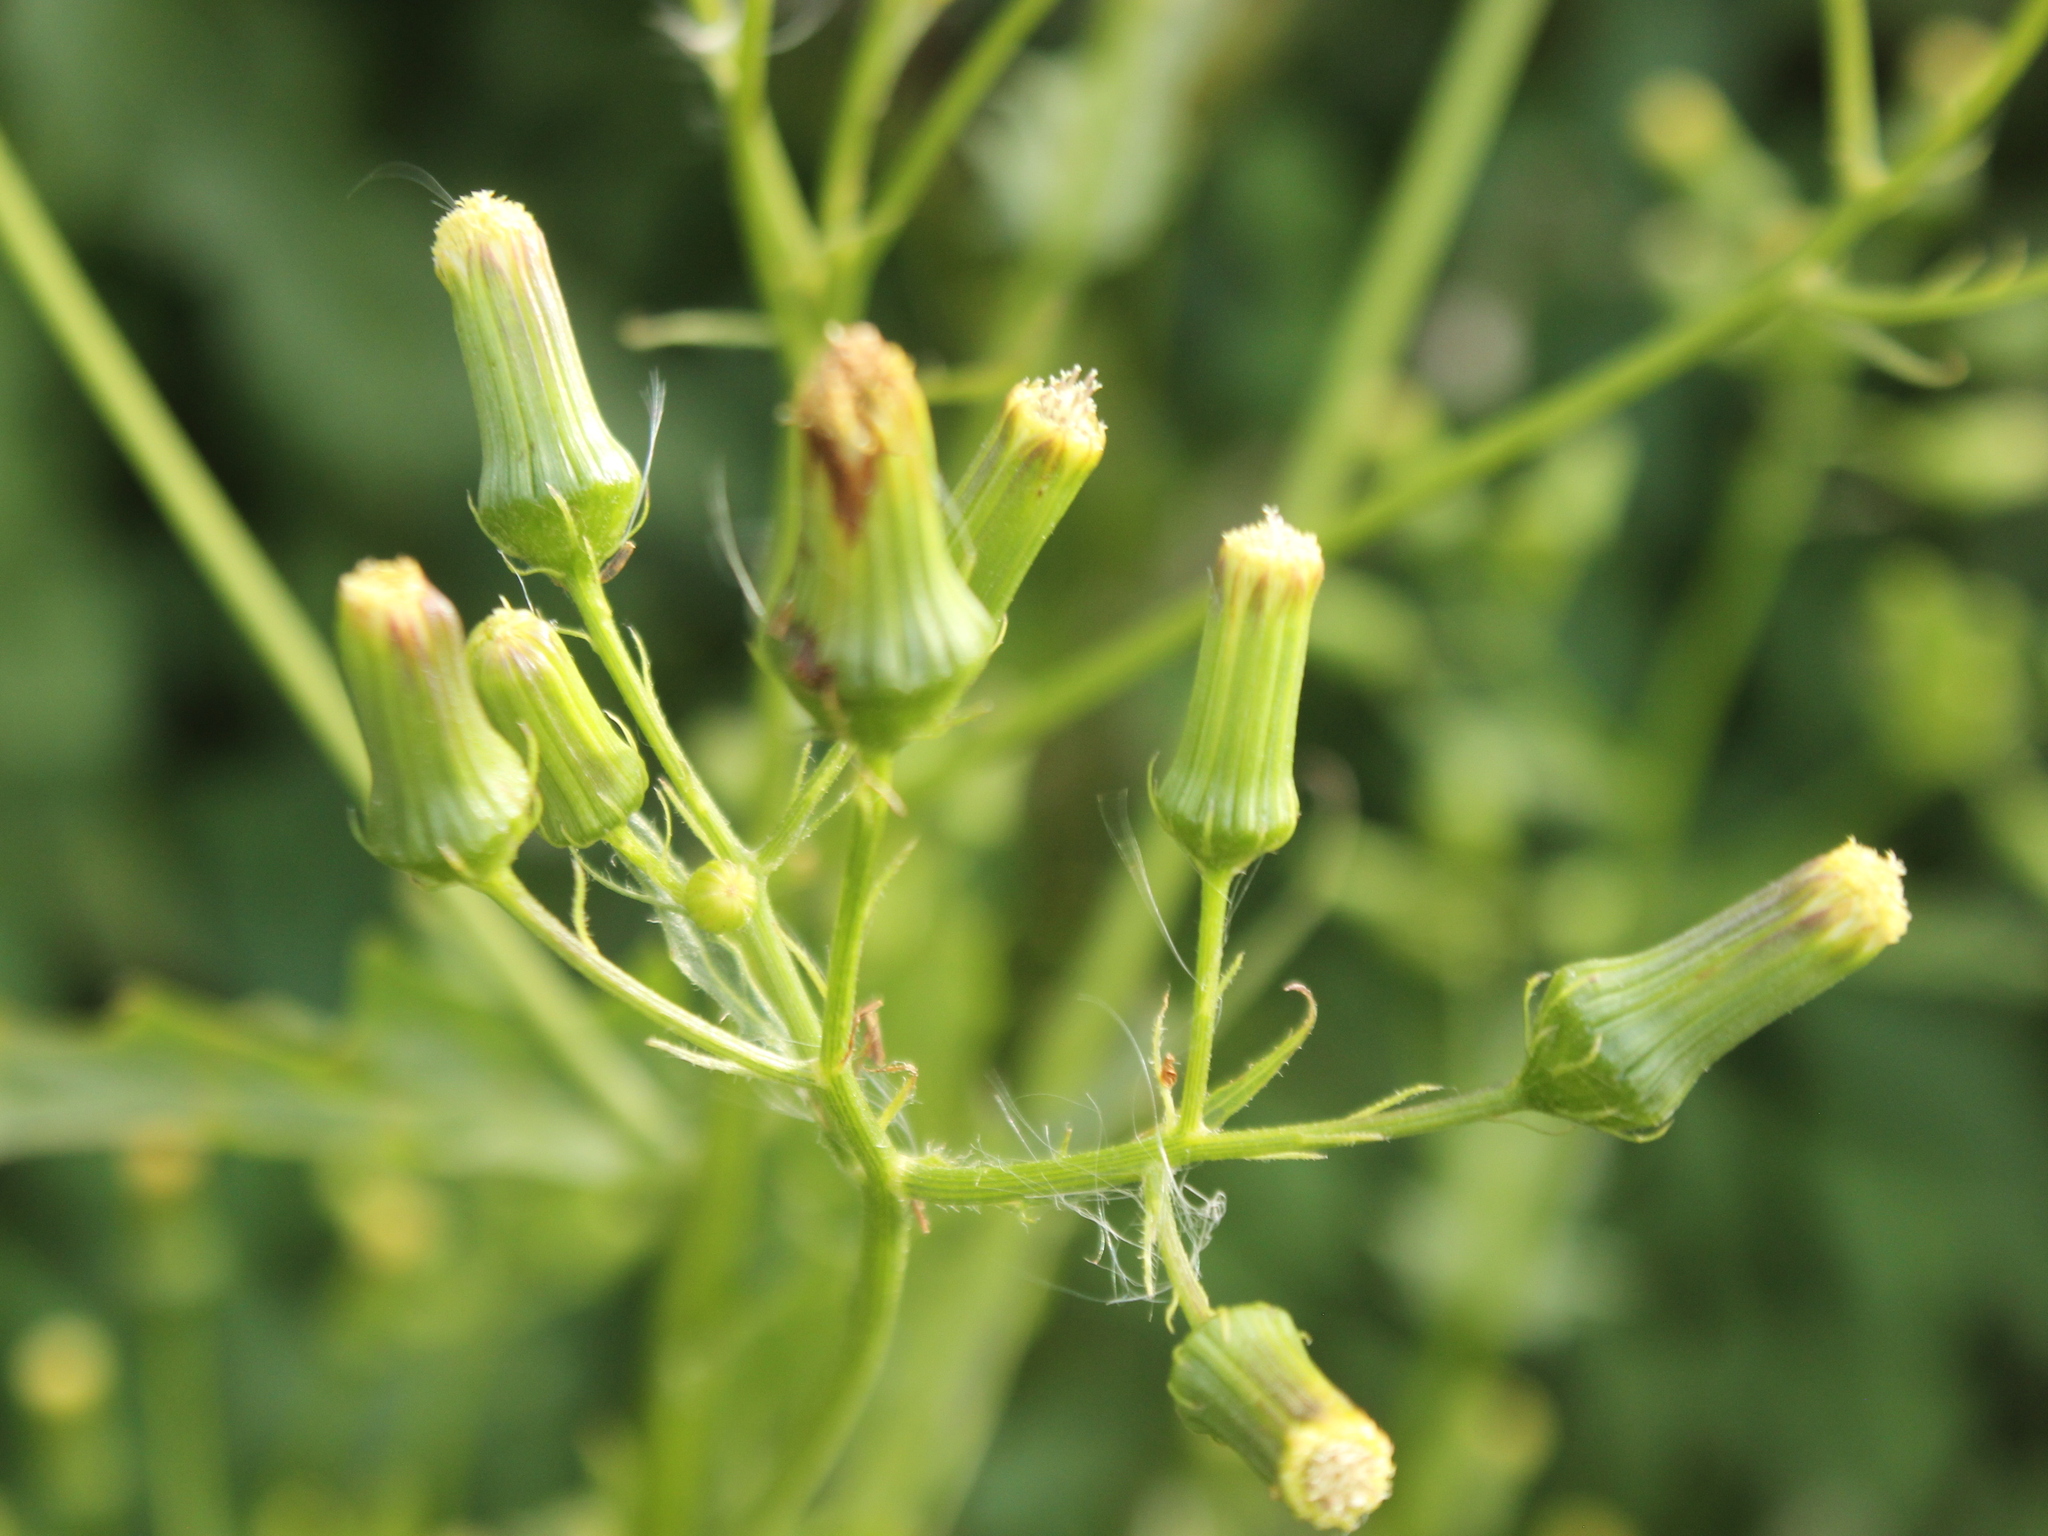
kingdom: Plantae
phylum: Tracheophyta
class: Magnoliopsida
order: Asterales
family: Asteraceae
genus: Erechtites
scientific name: Erechtites hieraciifolius
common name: American burnweed
